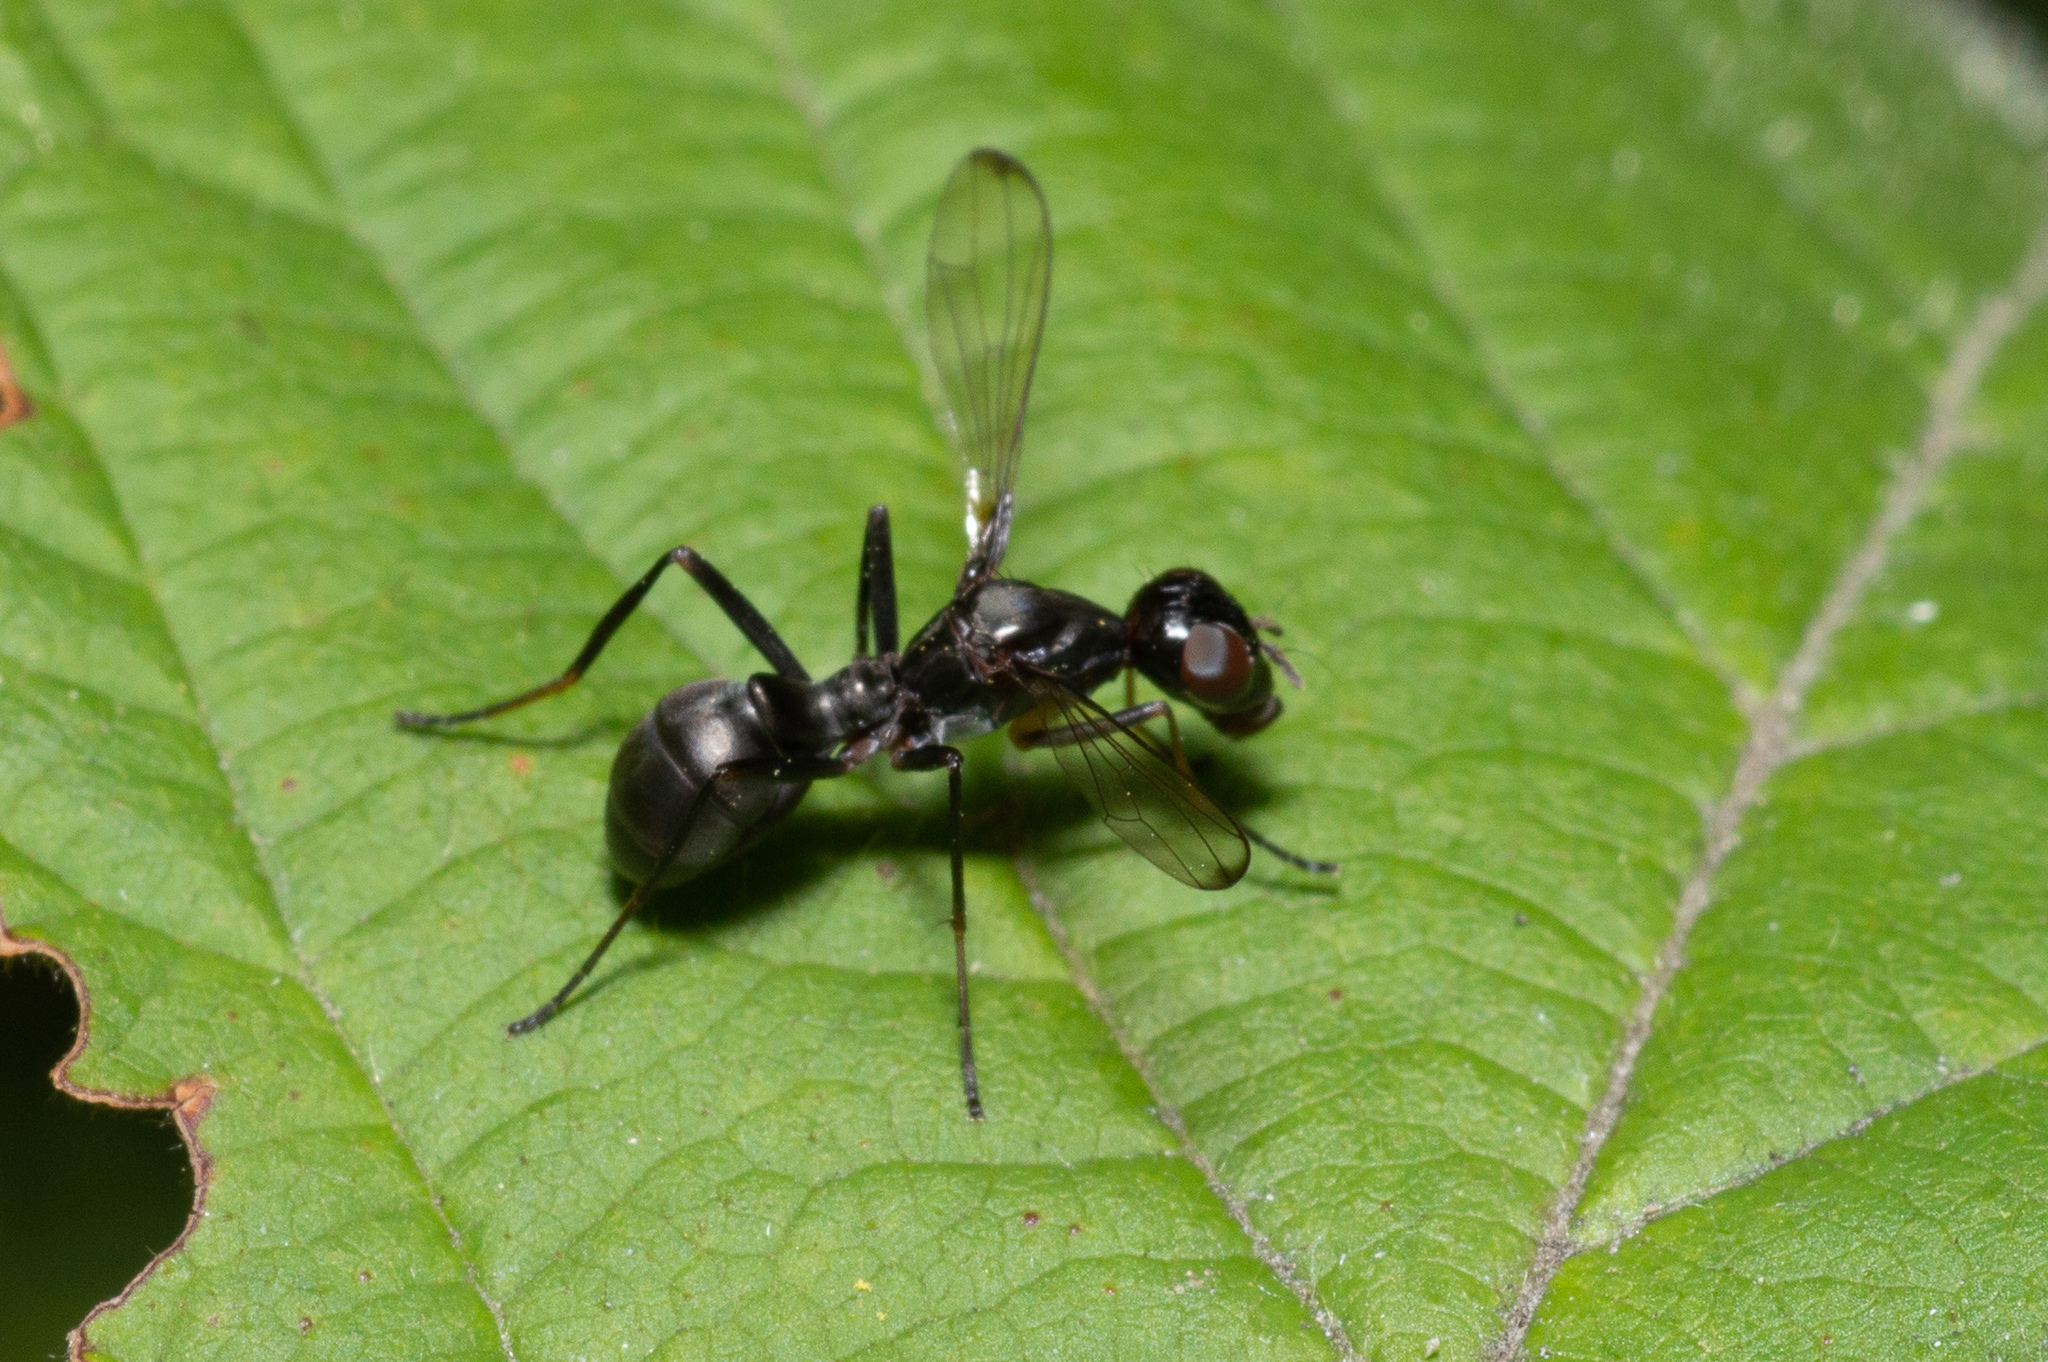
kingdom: Animalia
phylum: Arthropoda
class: Insecta
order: Diptera
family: Ulidiidae
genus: Myrmecothea
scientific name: Myrmecothea myrmecoides
